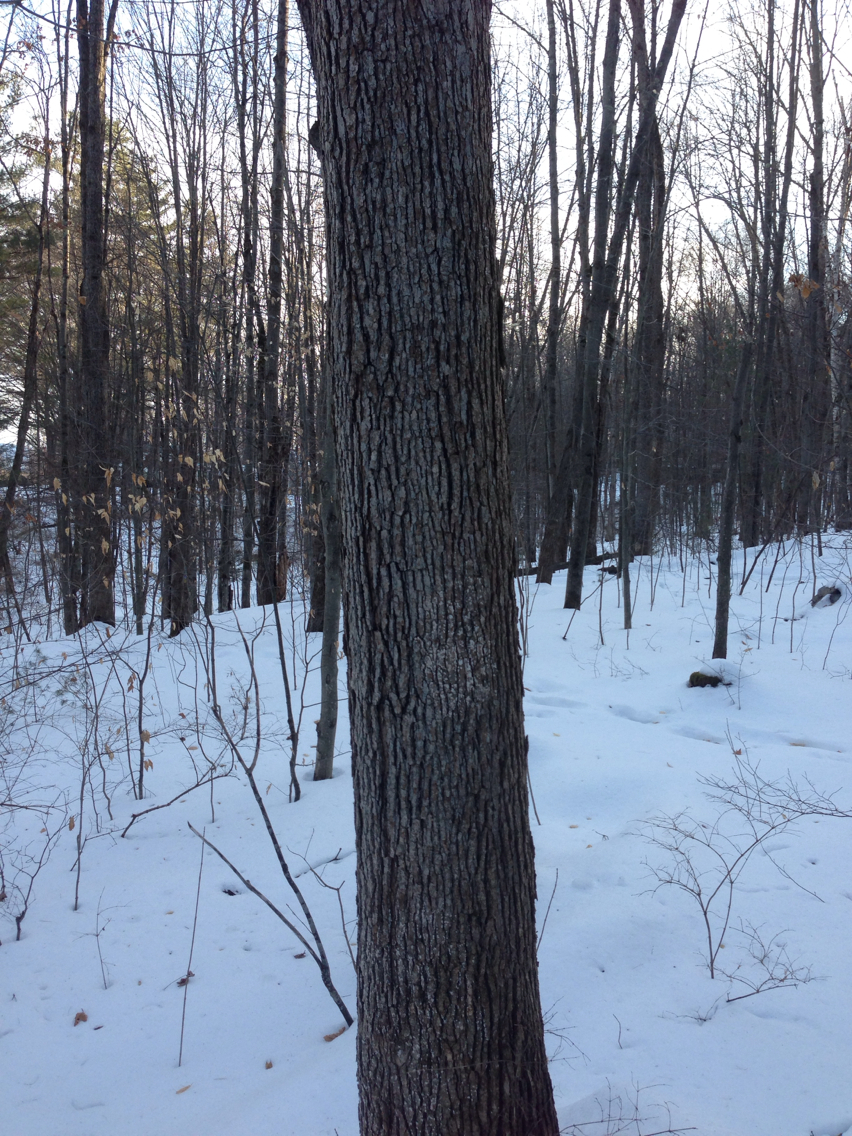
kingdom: Plantae
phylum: Tracheophyta
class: Magnoliopsida
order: Fagales
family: Fagaceae
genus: Quercus
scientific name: Quercus alba
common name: White oak
